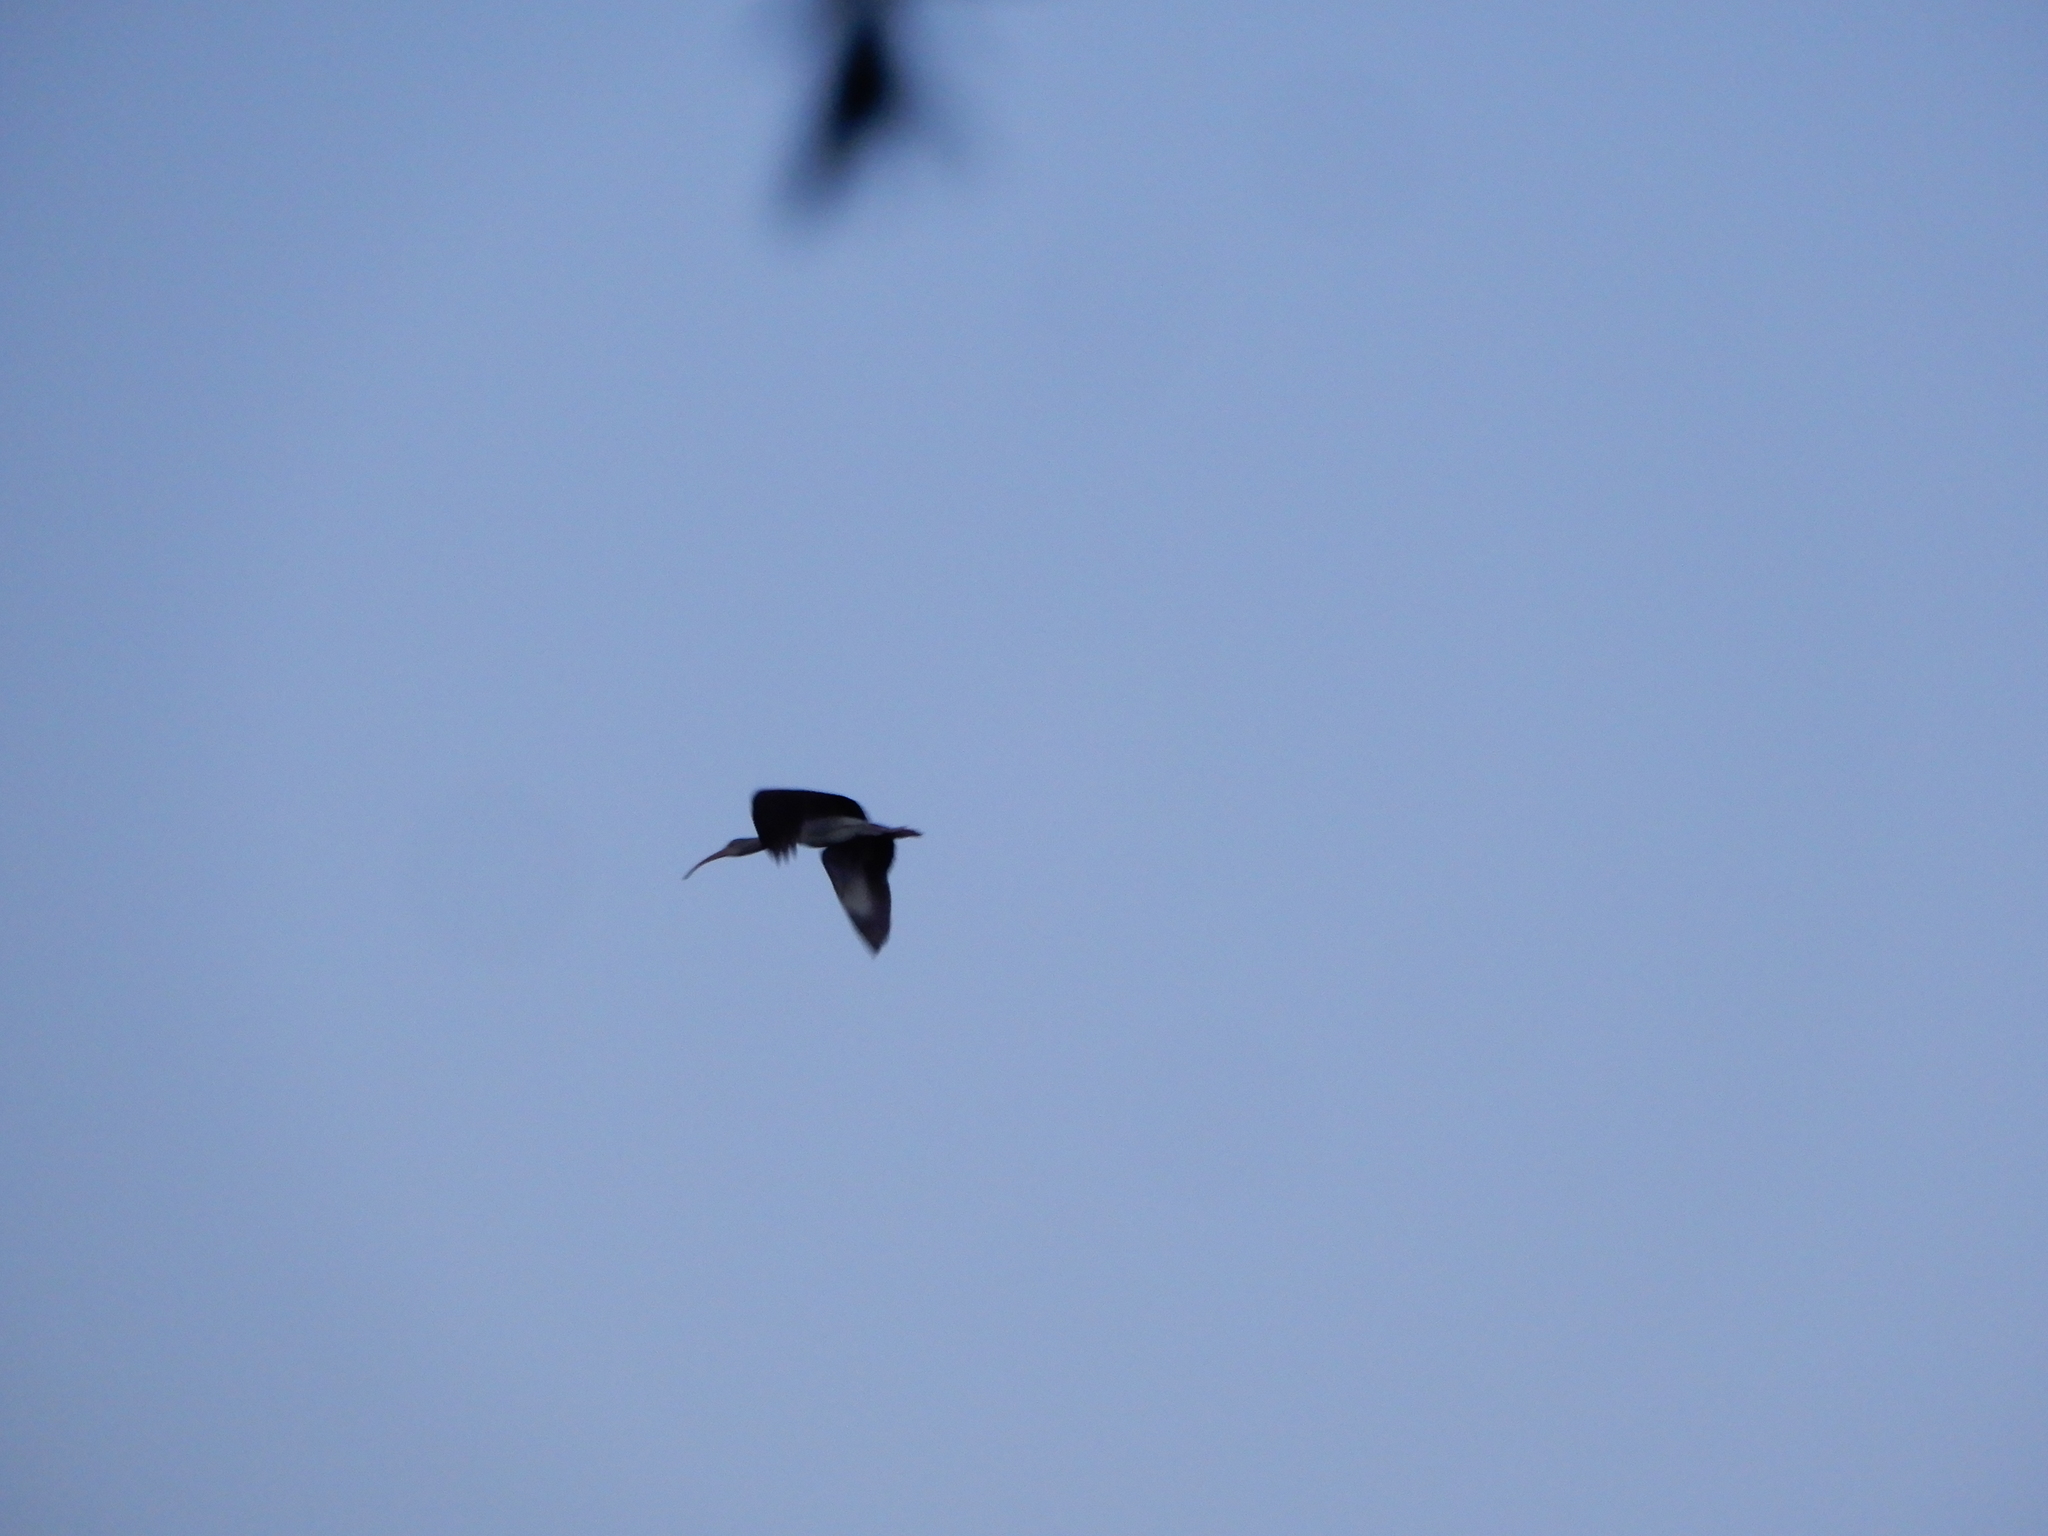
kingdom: Animalia
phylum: Chordata
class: Aves
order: Pelecaniformes
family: Threskiornithidae
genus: Eudocimus
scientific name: Eudocimus albus
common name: White ibis
